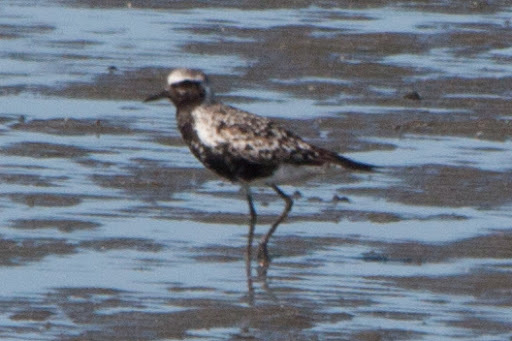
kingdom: Animalia
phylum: Chordata
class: Aves
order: Charadriiformes
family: Charadriidae
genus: Pluvialis
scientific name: Pluvialis squatarola
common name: Grey plover
